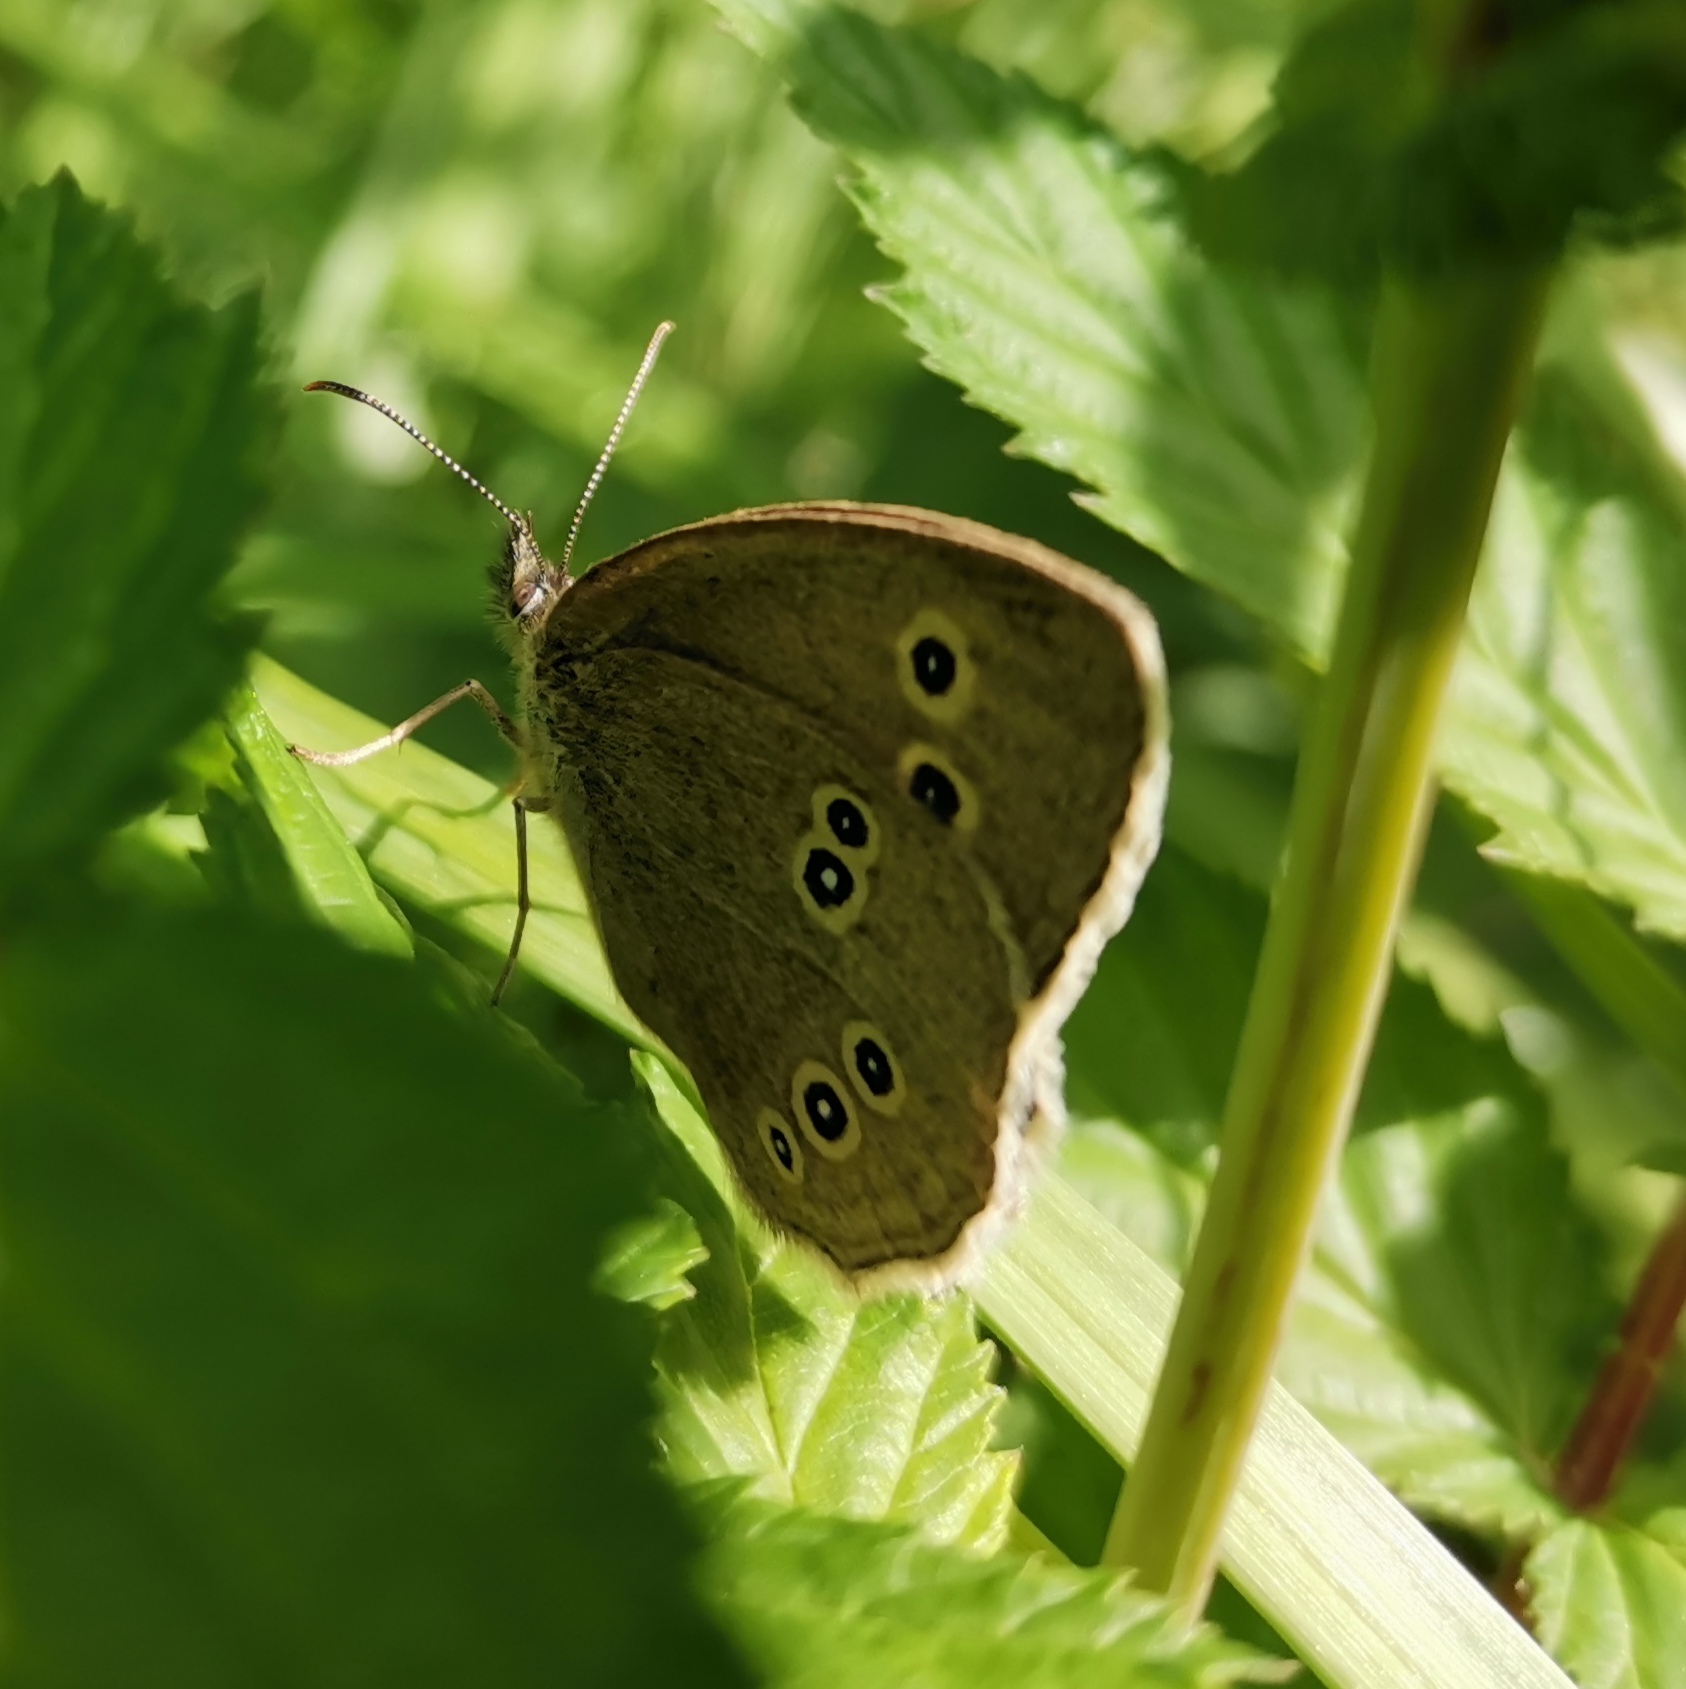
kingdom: Animalia
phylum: Arthropoda
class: Insecta
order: Lepidoptera
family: Nymphalidae
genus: Aphantopus
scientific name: Aphantopus hyperantus
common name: Ringlet
